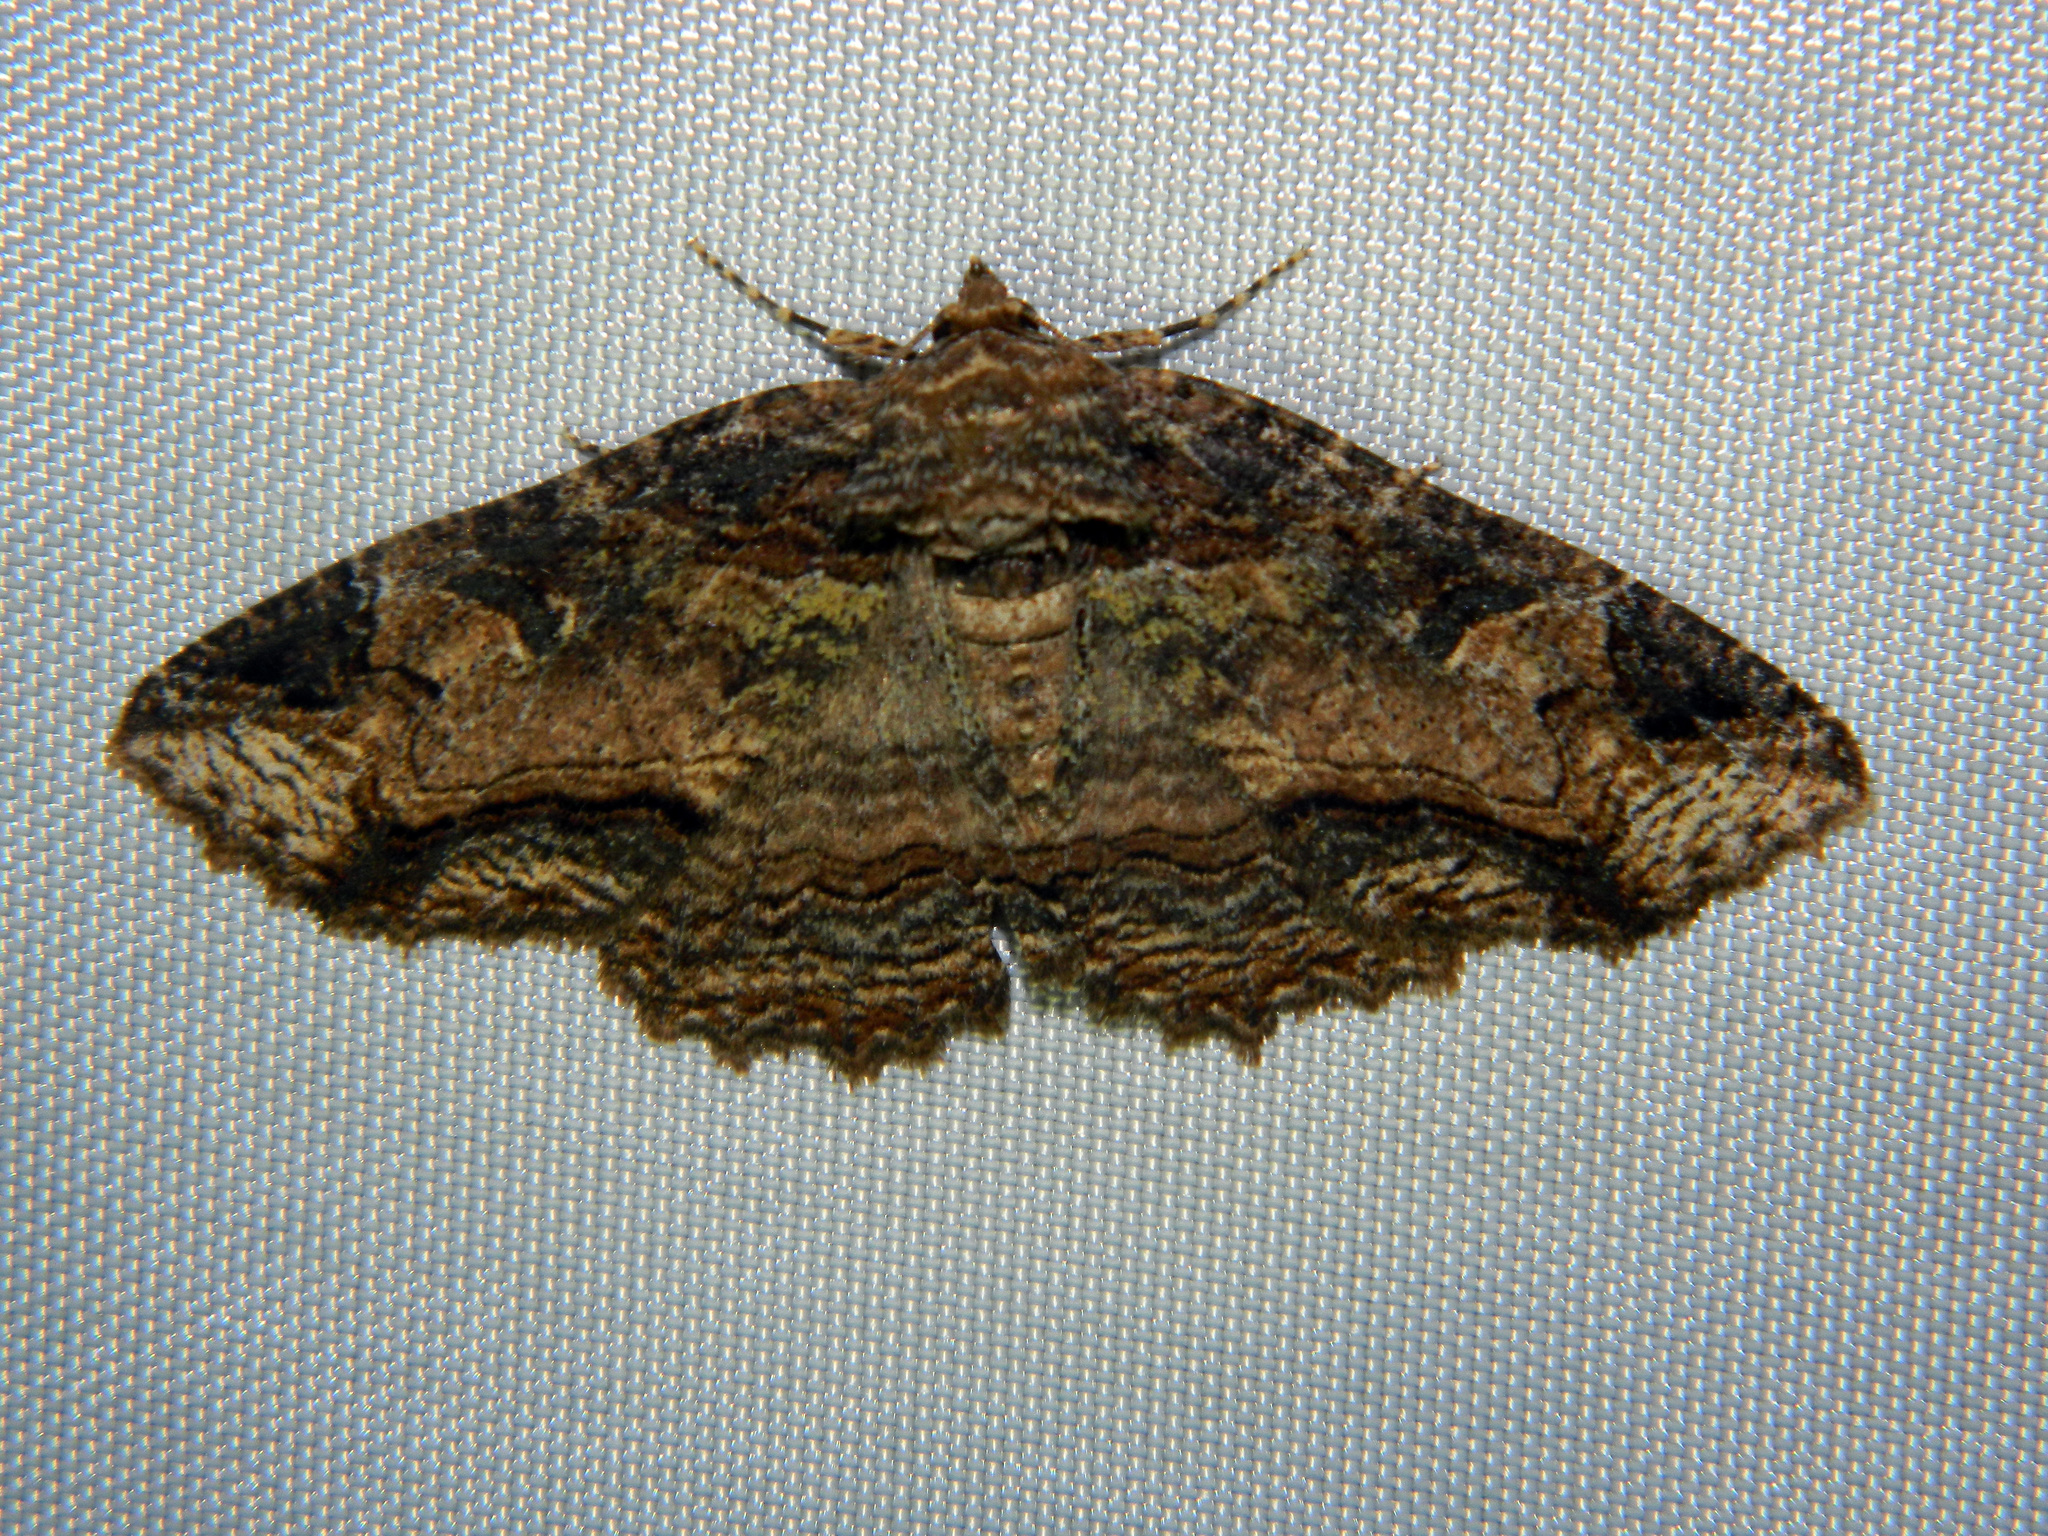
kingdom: Animalia
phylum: Arthropoda
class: Insecta
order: Lepidoptera
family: Erebidae
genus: Zale
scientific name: Zale minerea
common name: Colorful zale moth
